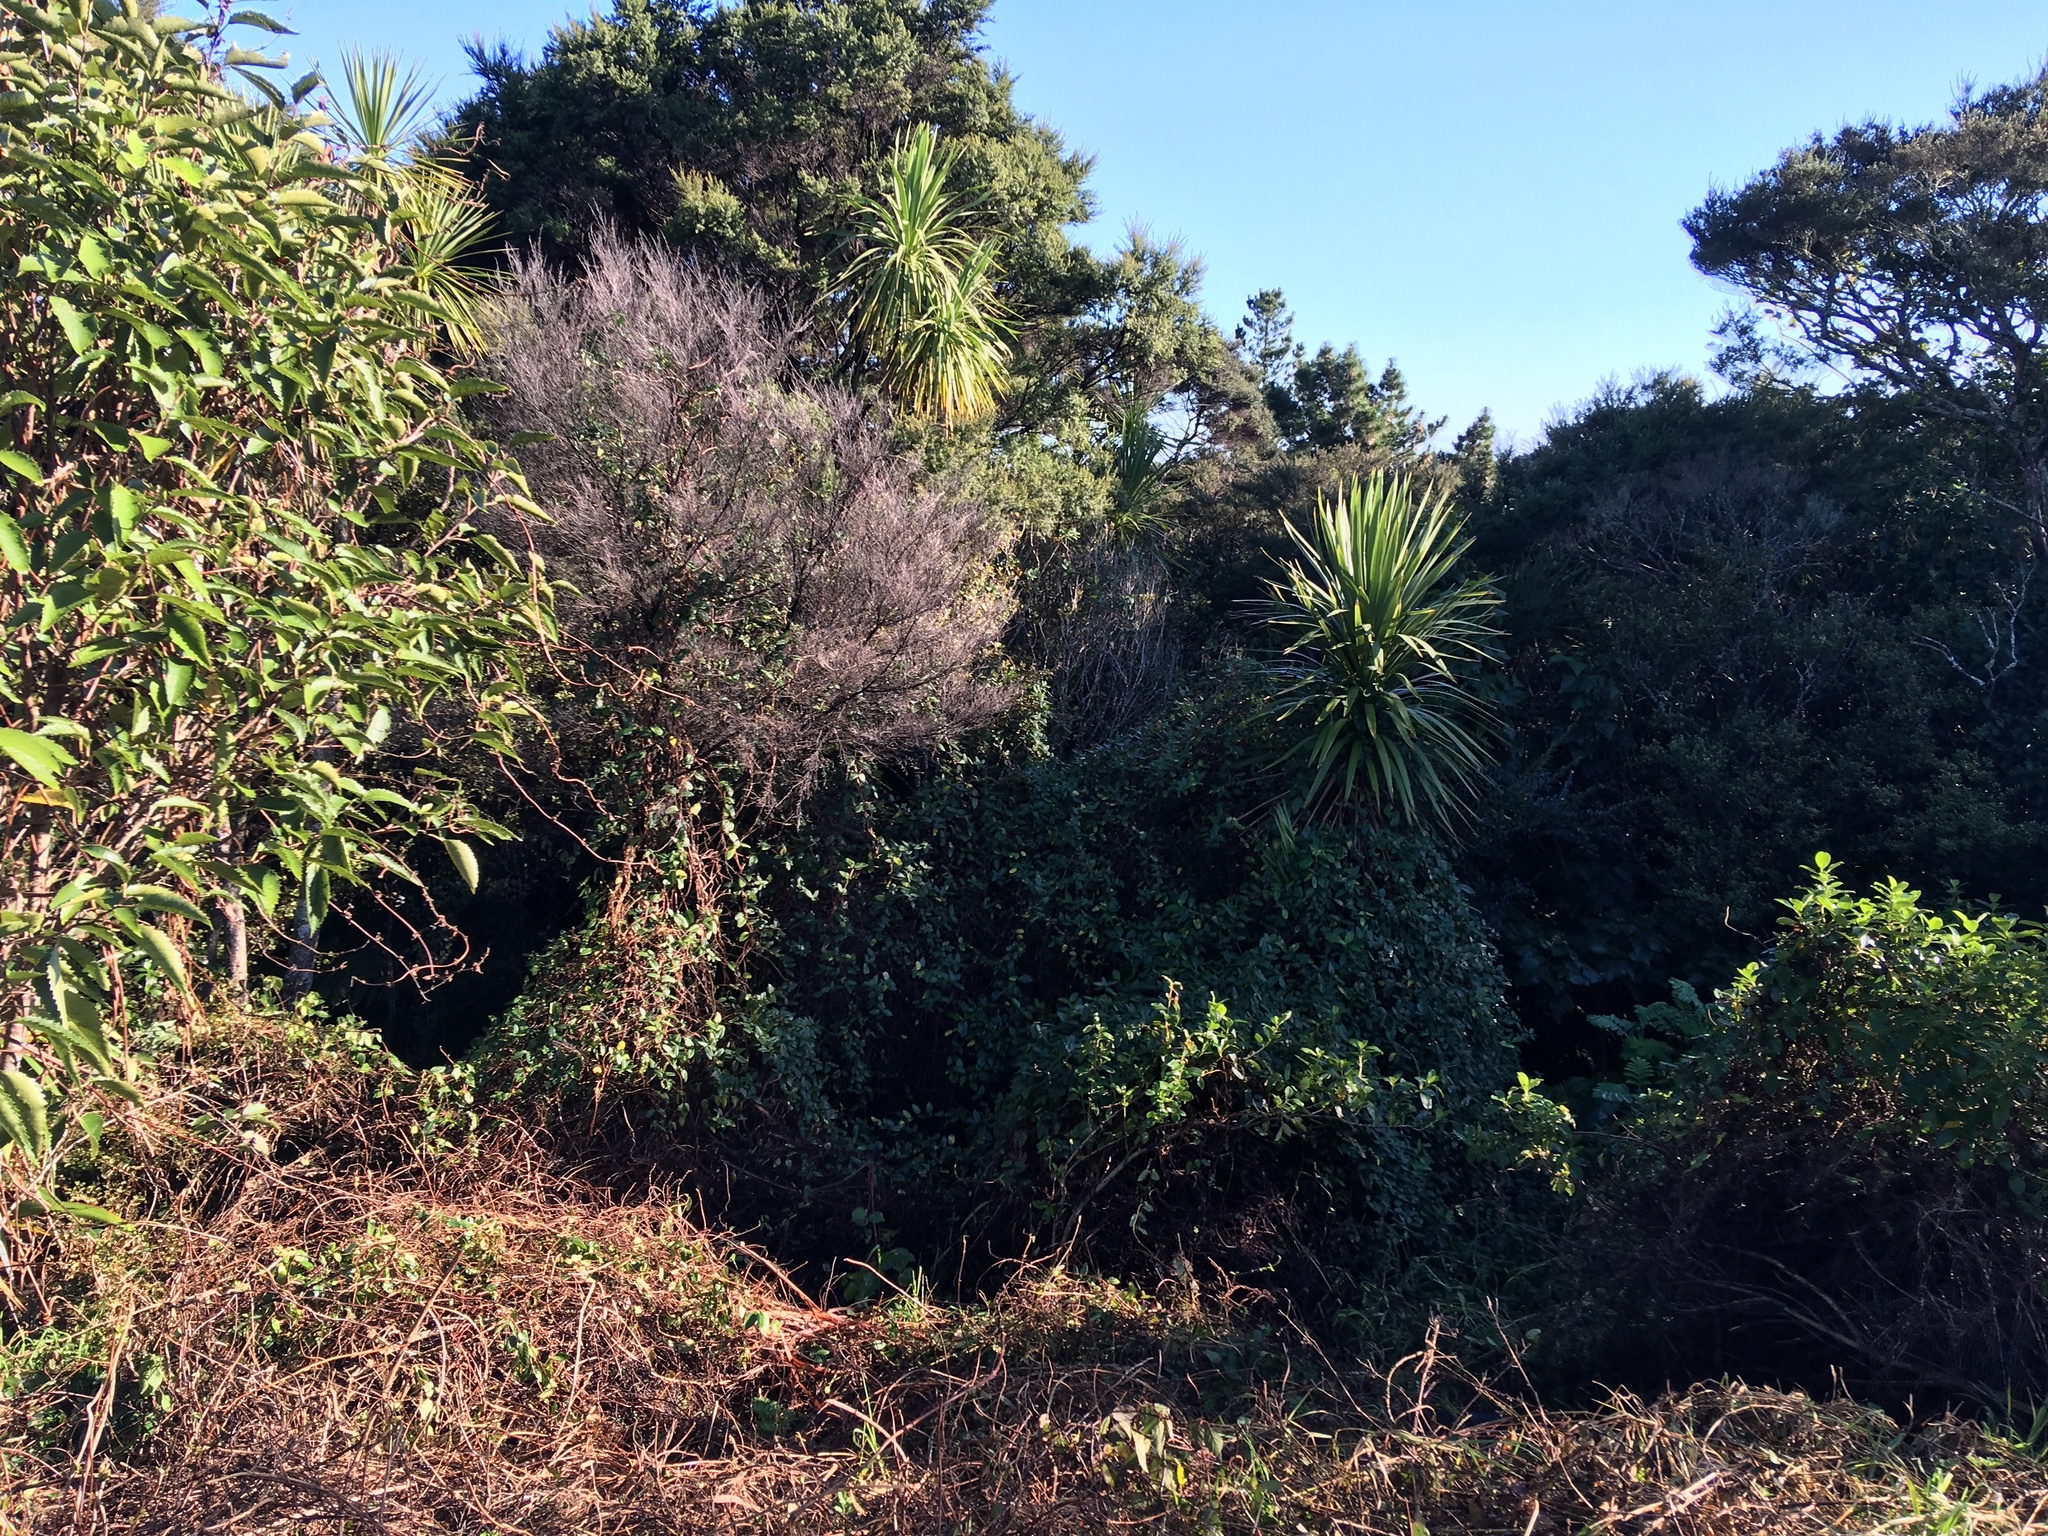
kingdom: Plantae
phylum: Tracheophyta
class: Magnoliopsida
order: Dipsacales
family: Caprifoliaceae
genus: Lonicera
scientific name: Lonicera japonica
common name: Japanese honeysuckle
